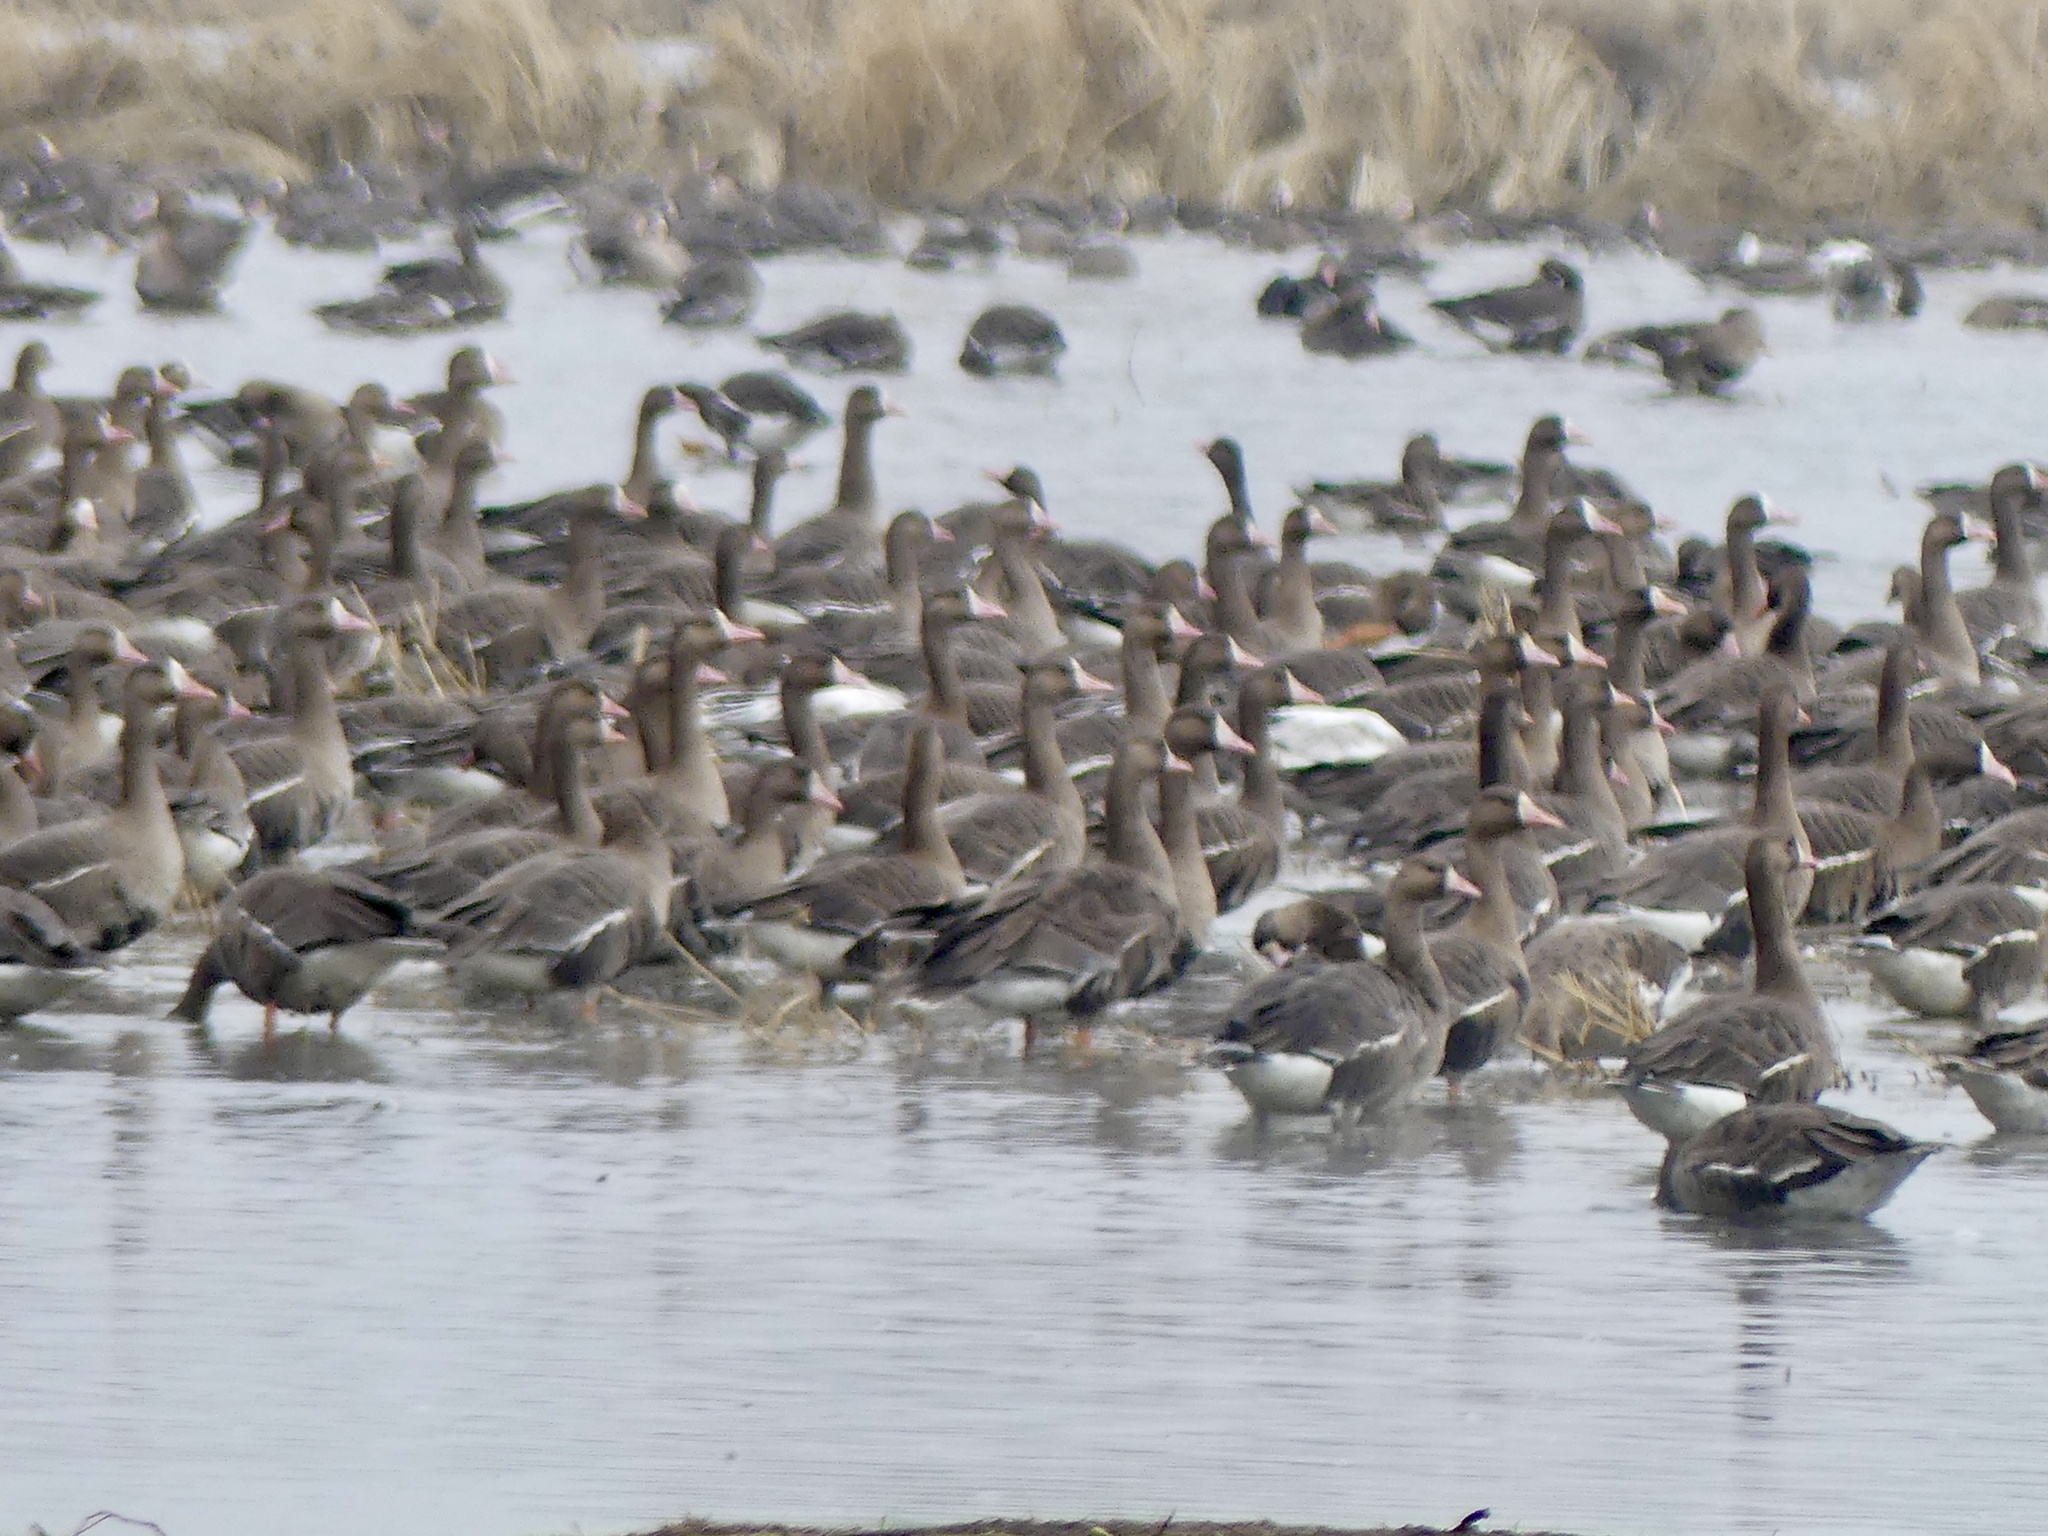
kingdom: Animalia
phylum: Chordata
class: Aves
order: Anseriformes
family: Anatidae
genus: Anser
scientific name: Anser albifrons
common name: Greater white-fronted goose
